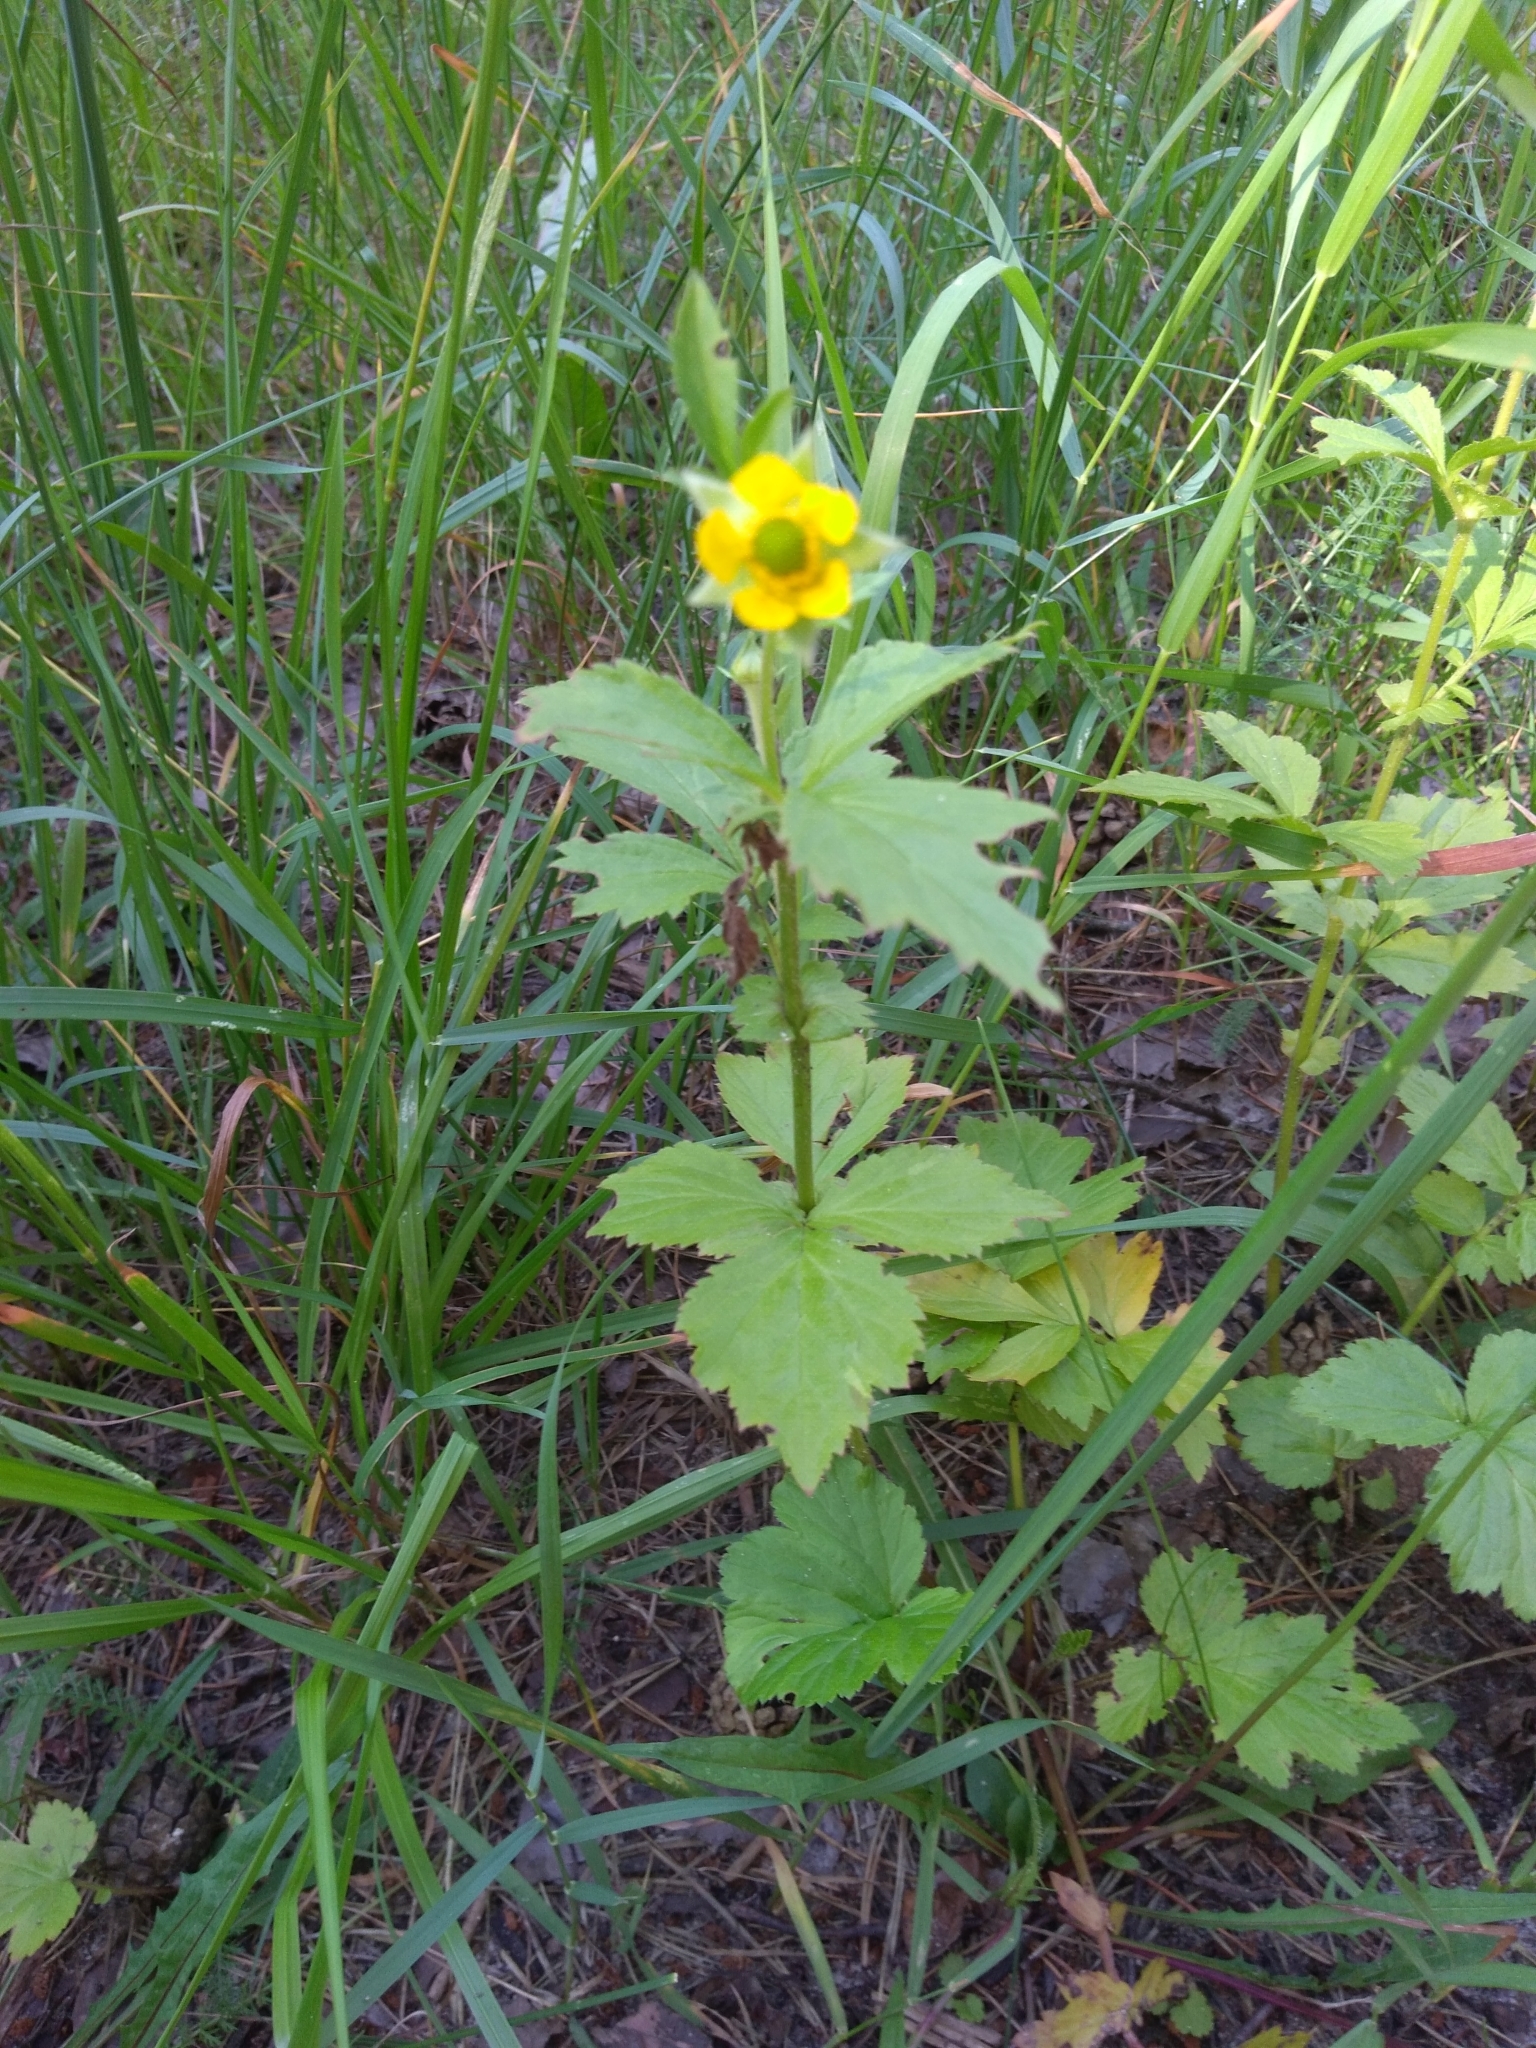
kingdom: Plantae
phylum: Tracheophyta
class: Magnoliopsida
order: Rosales
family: Rosaceae
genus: Geum
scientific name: Geum aleppicum
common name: Yellow avens
